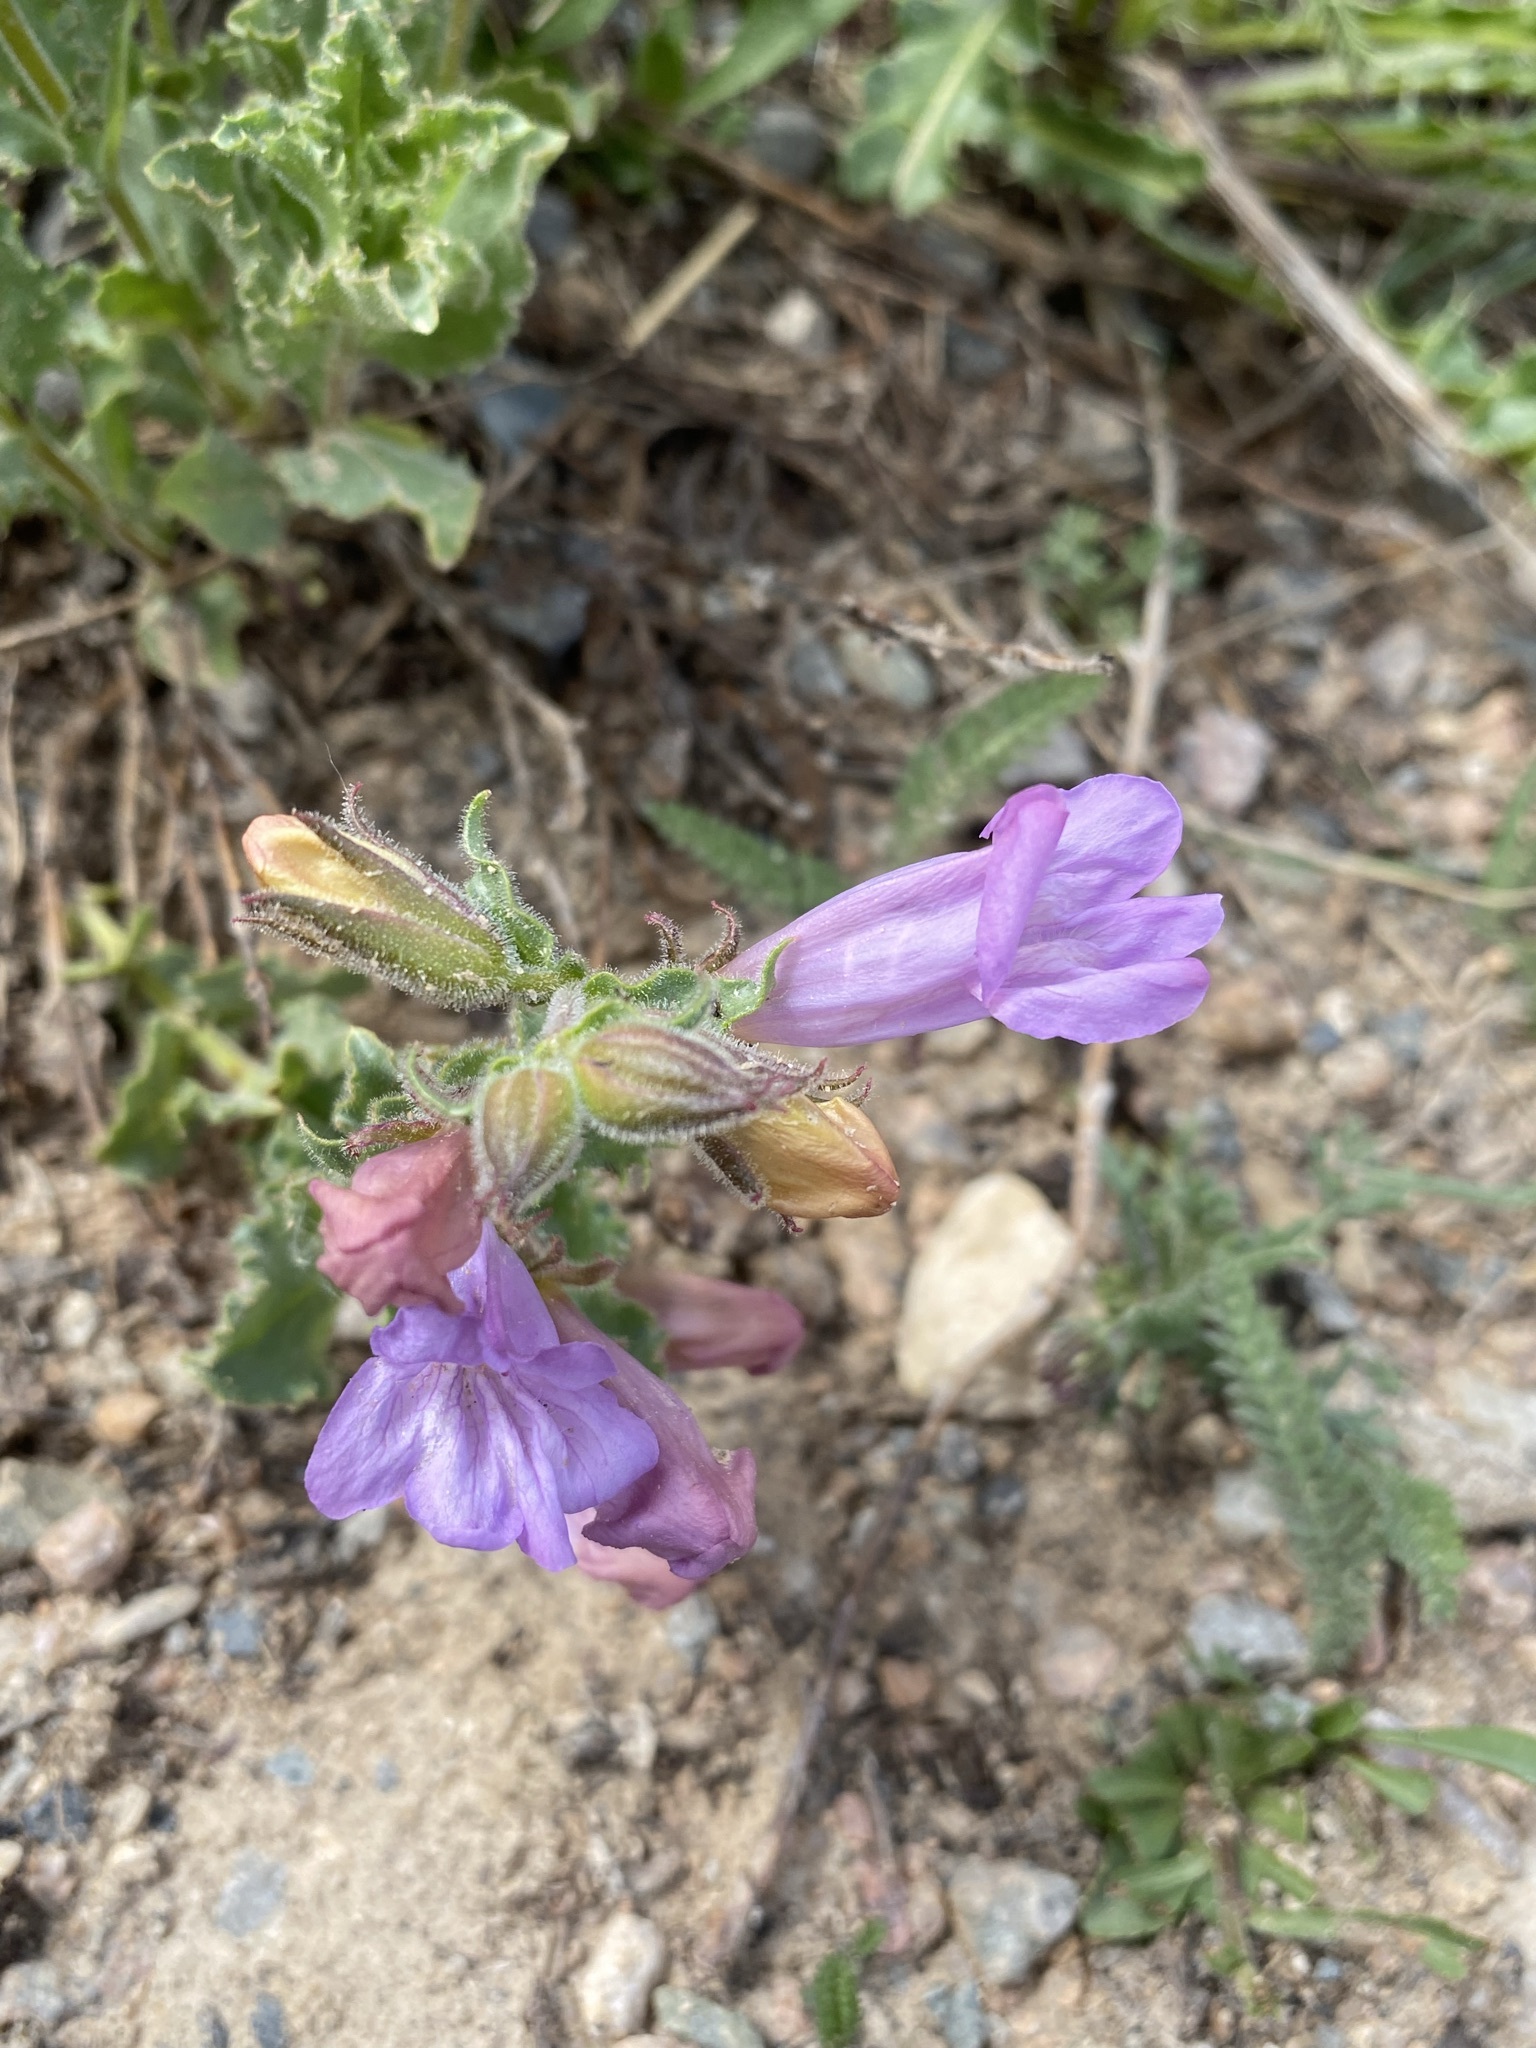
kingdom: Plantae
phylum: Tracheophyta
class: Magnoliopsida
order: Lamiales
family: Plantaginaceae
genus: Penstemon
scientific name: Penstemon montanus
